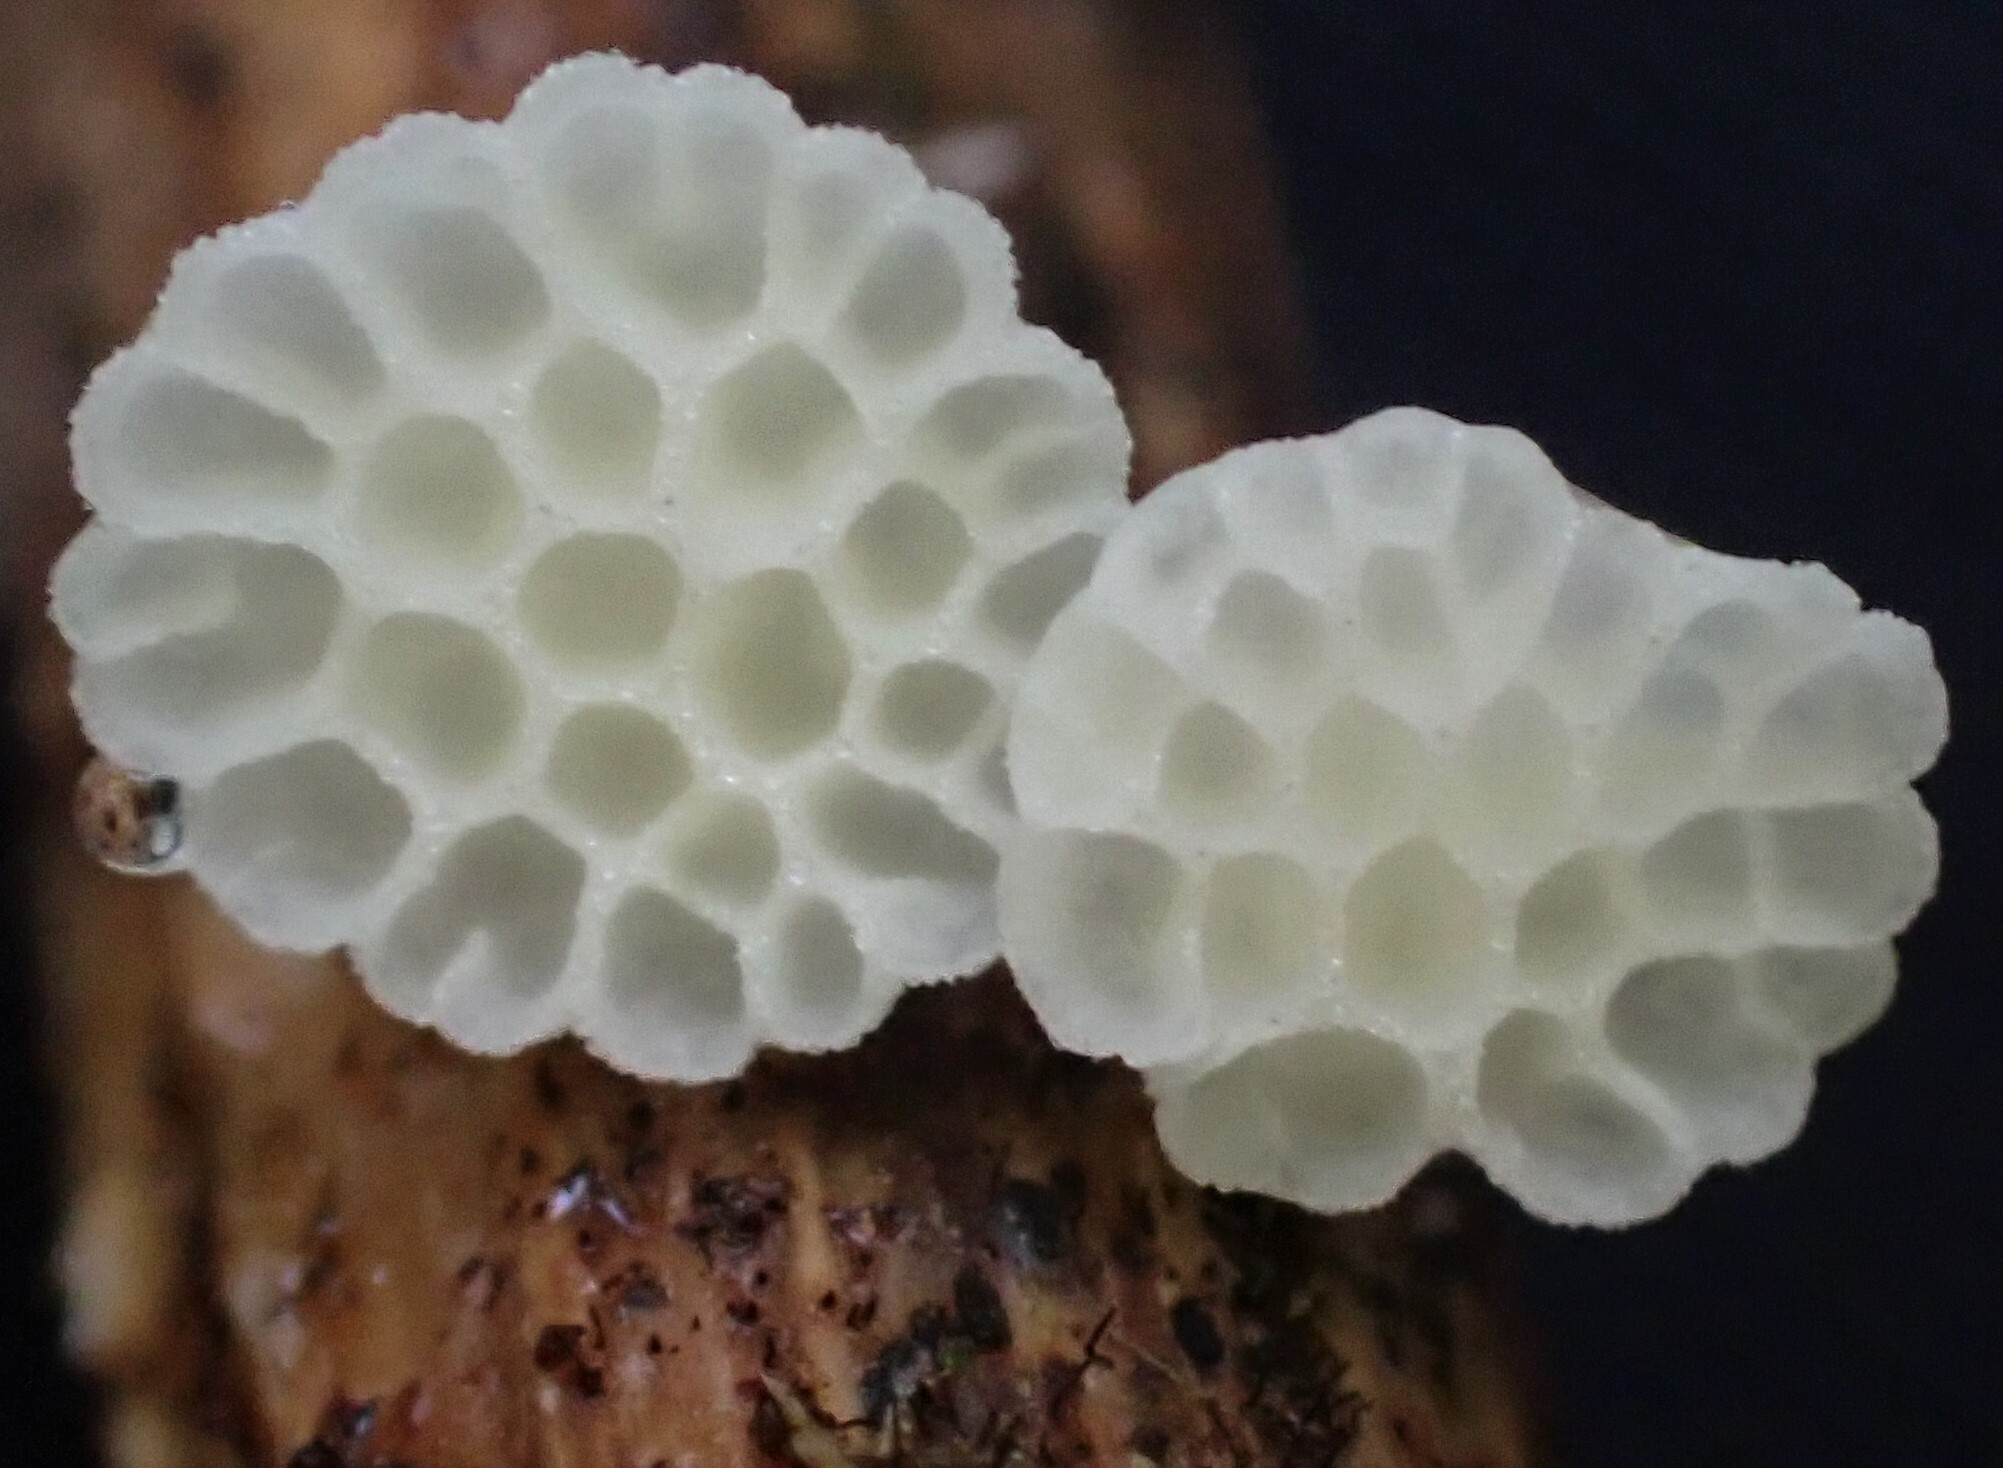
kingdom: Fungi
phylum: Basidiomycota
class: Agaricomycetes
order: Agaricales
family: Mycenaceae
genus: Panellus
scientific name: Panellus minimus
